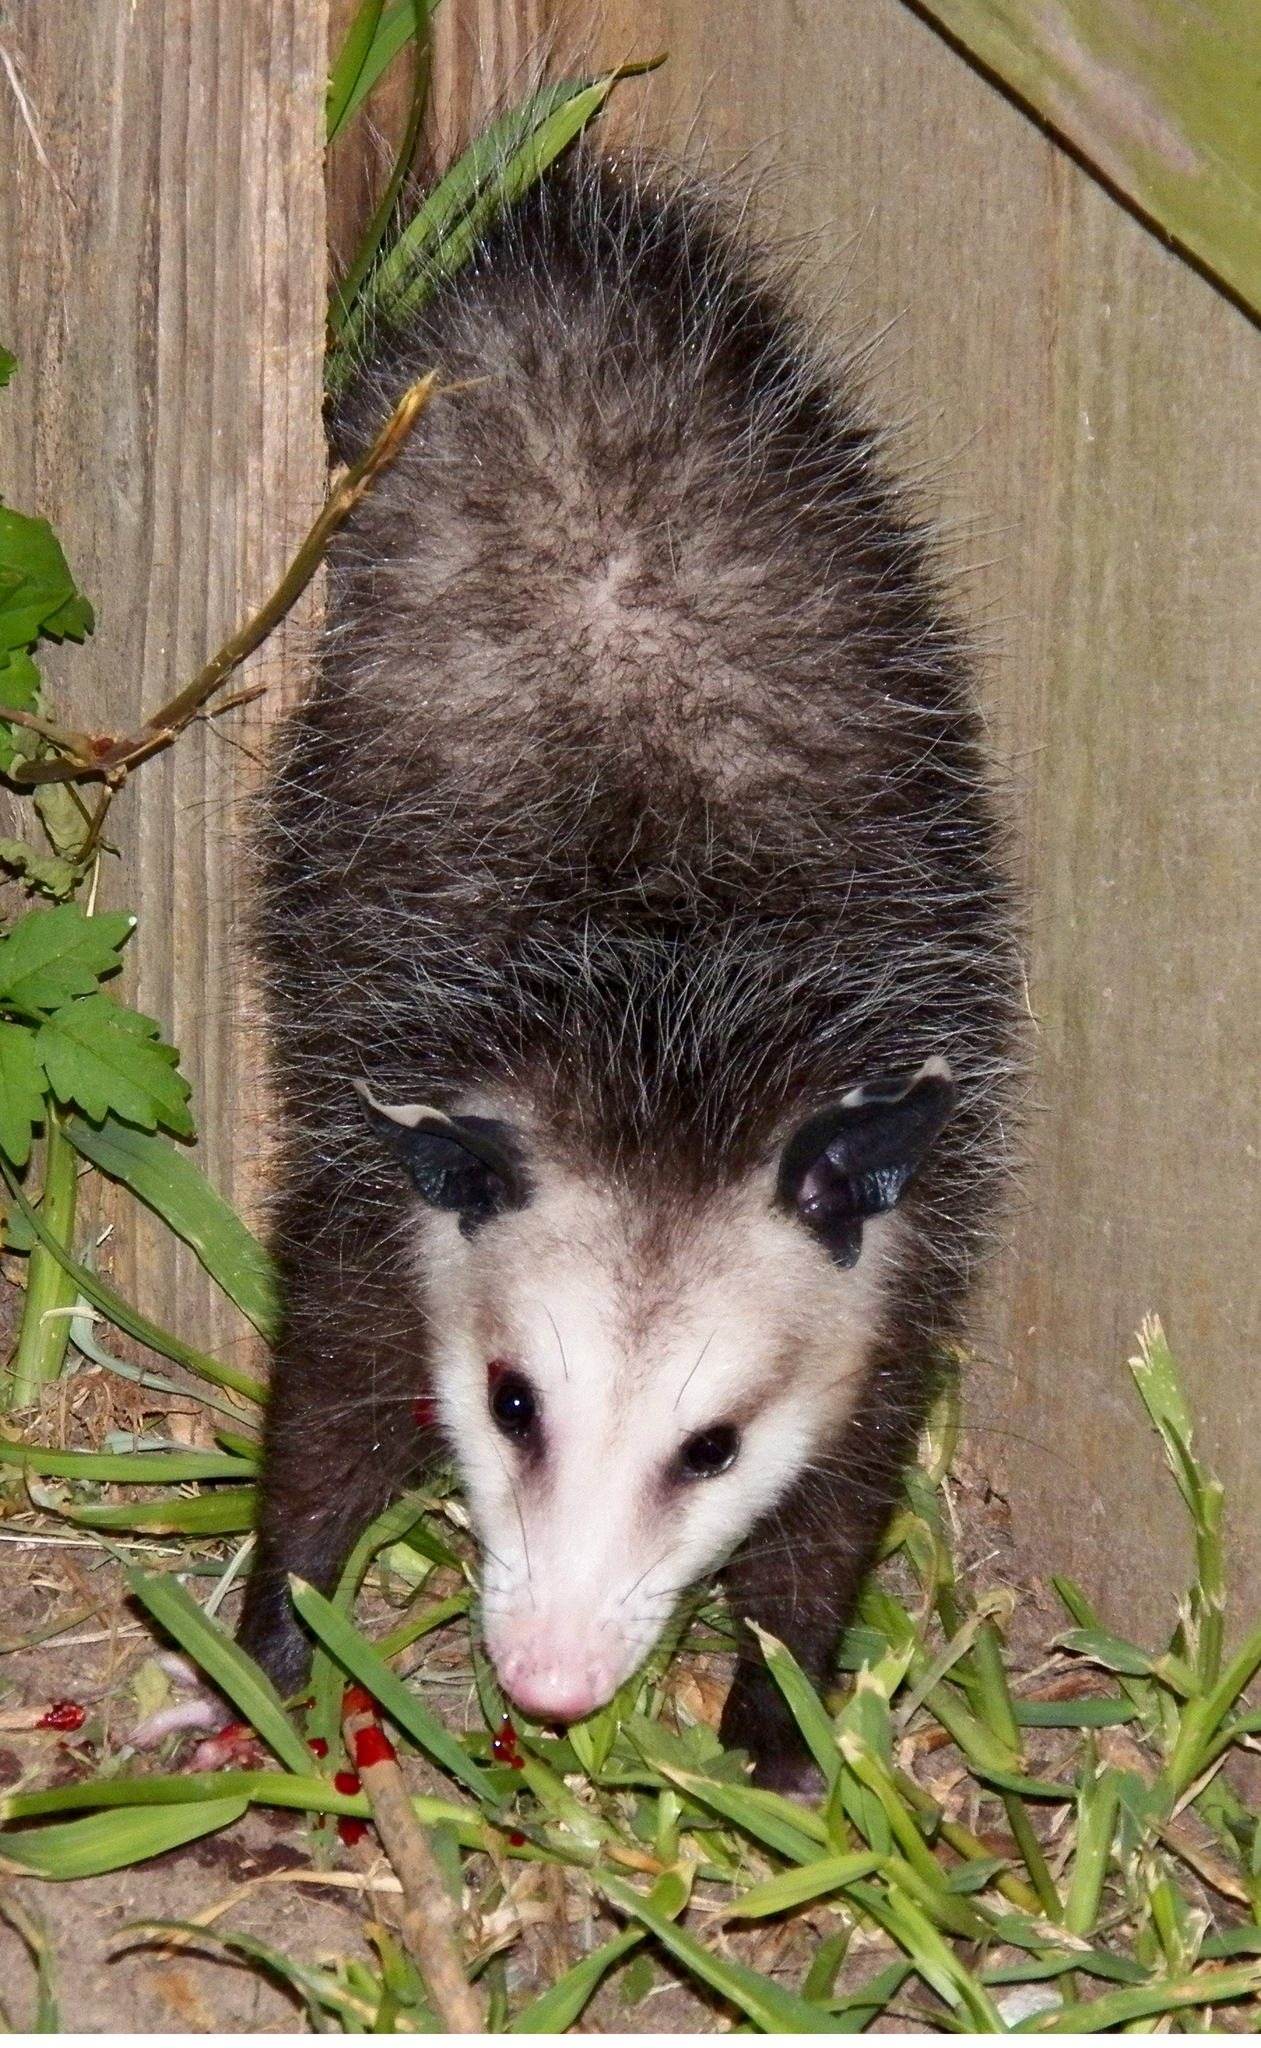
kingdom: Animalia
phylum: Chordata
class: Mammalia
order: Didelphimorphia
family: Didelphidae
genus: Didelphis
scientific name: Didelphis virginiana
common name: Virginia opossum
